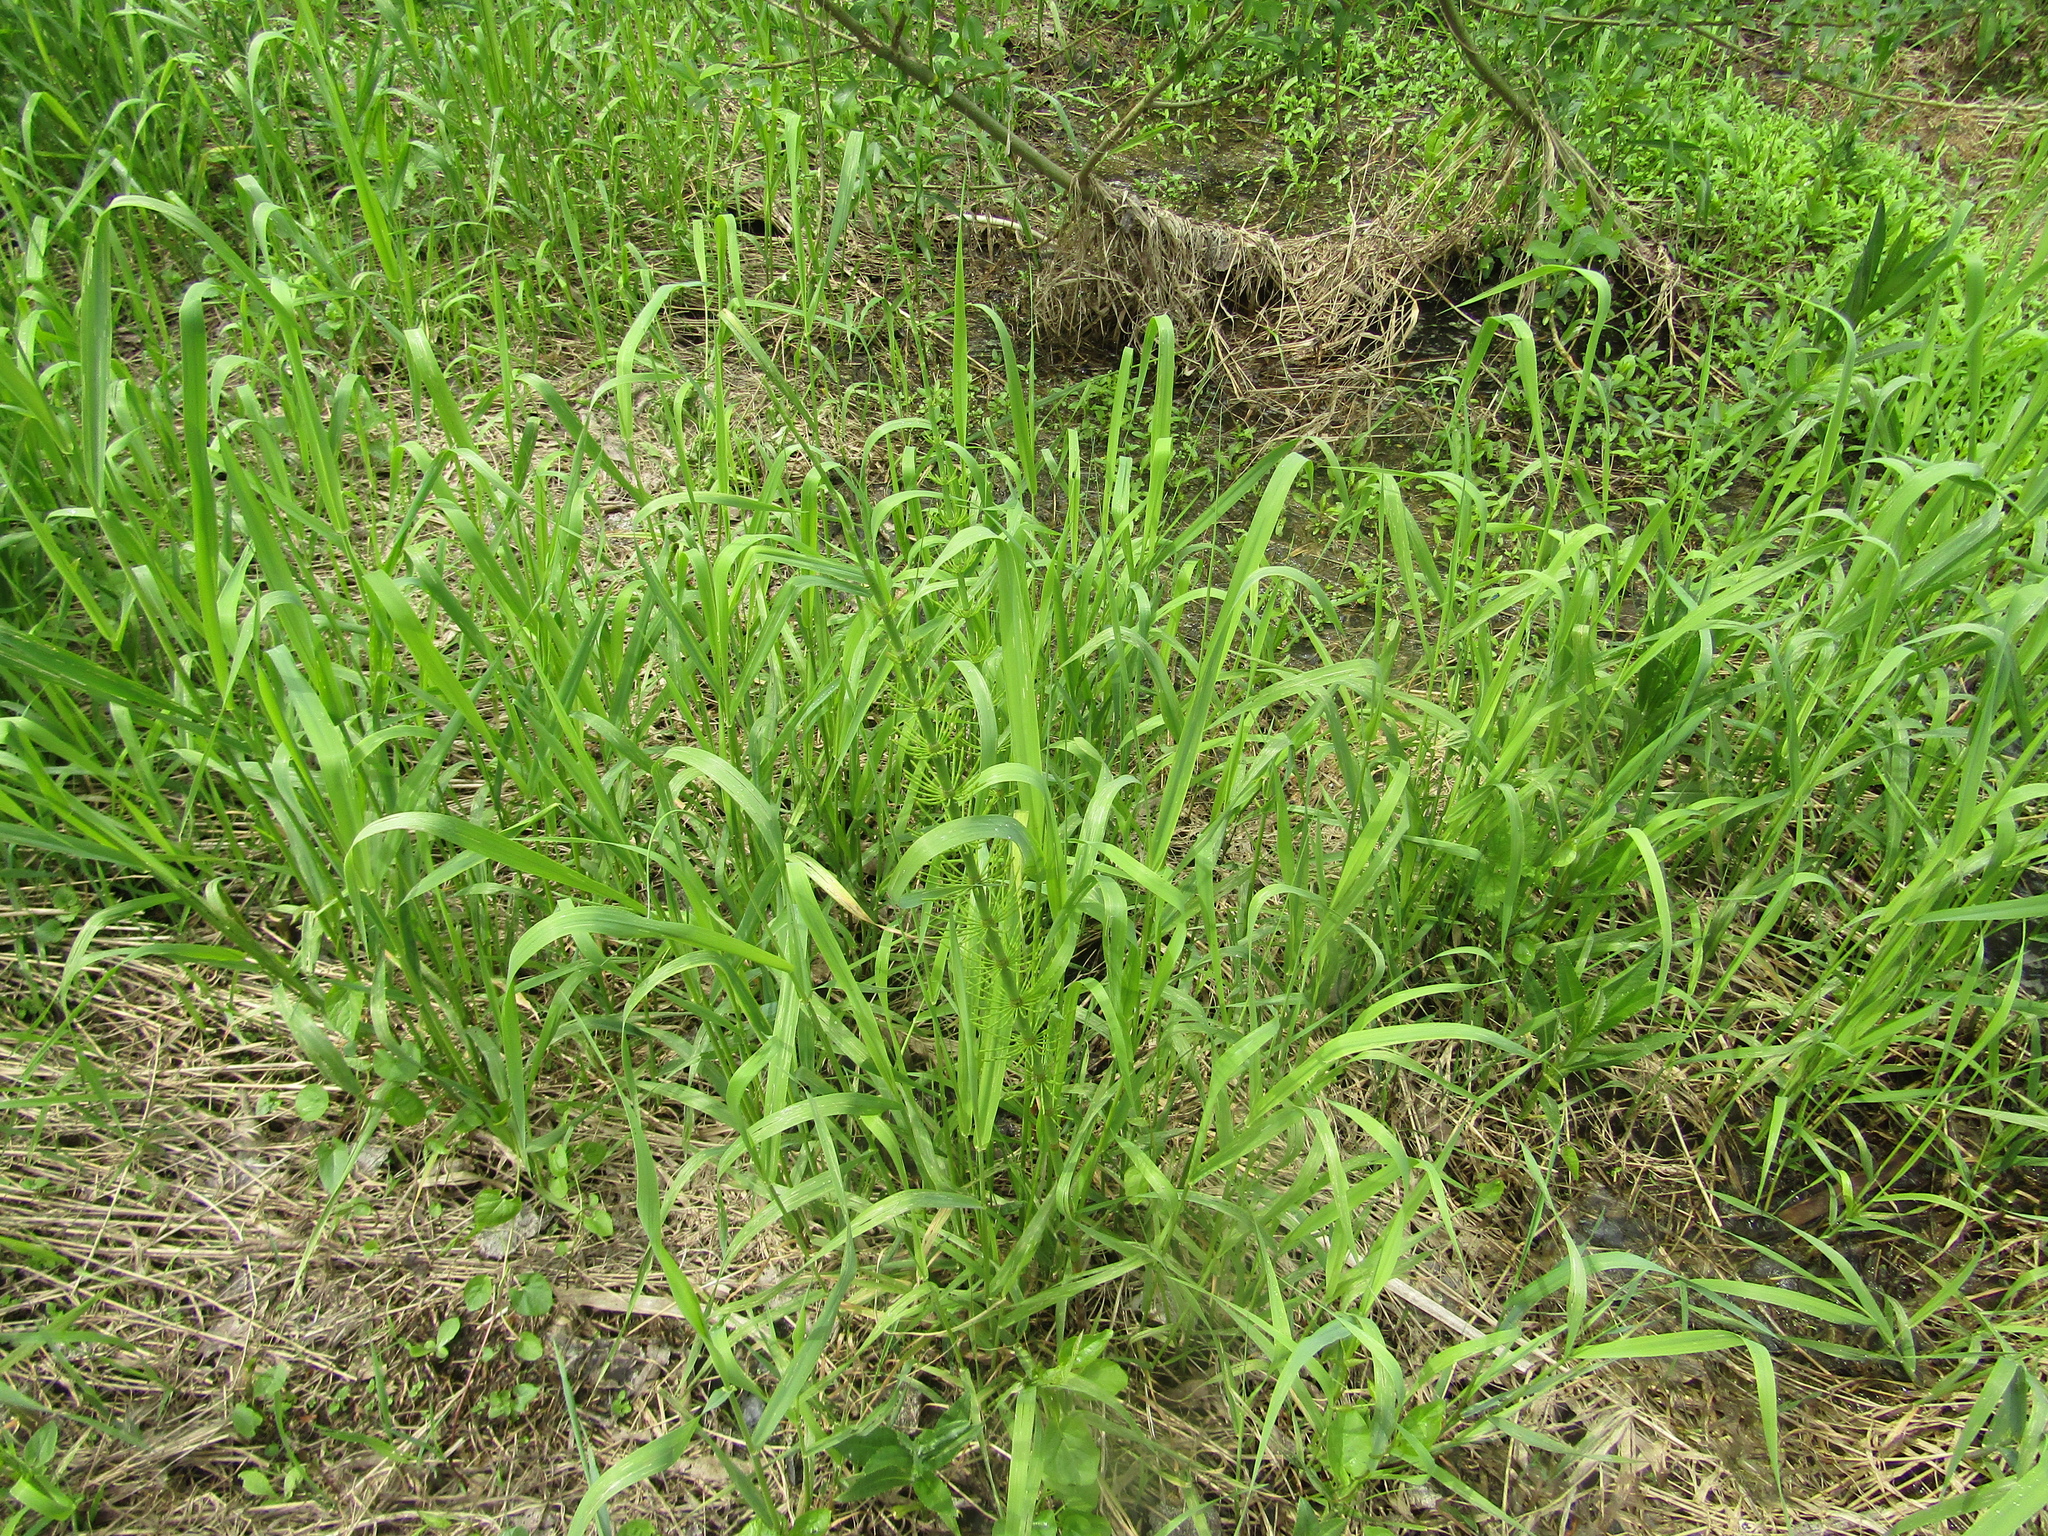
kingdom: Plantae
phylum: Tracheophyta
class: Polypodiopsida
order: Equisetales
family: Equisetaceae
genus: Equisetum
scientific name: Equisetum fluviatile
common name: Water horsetail
